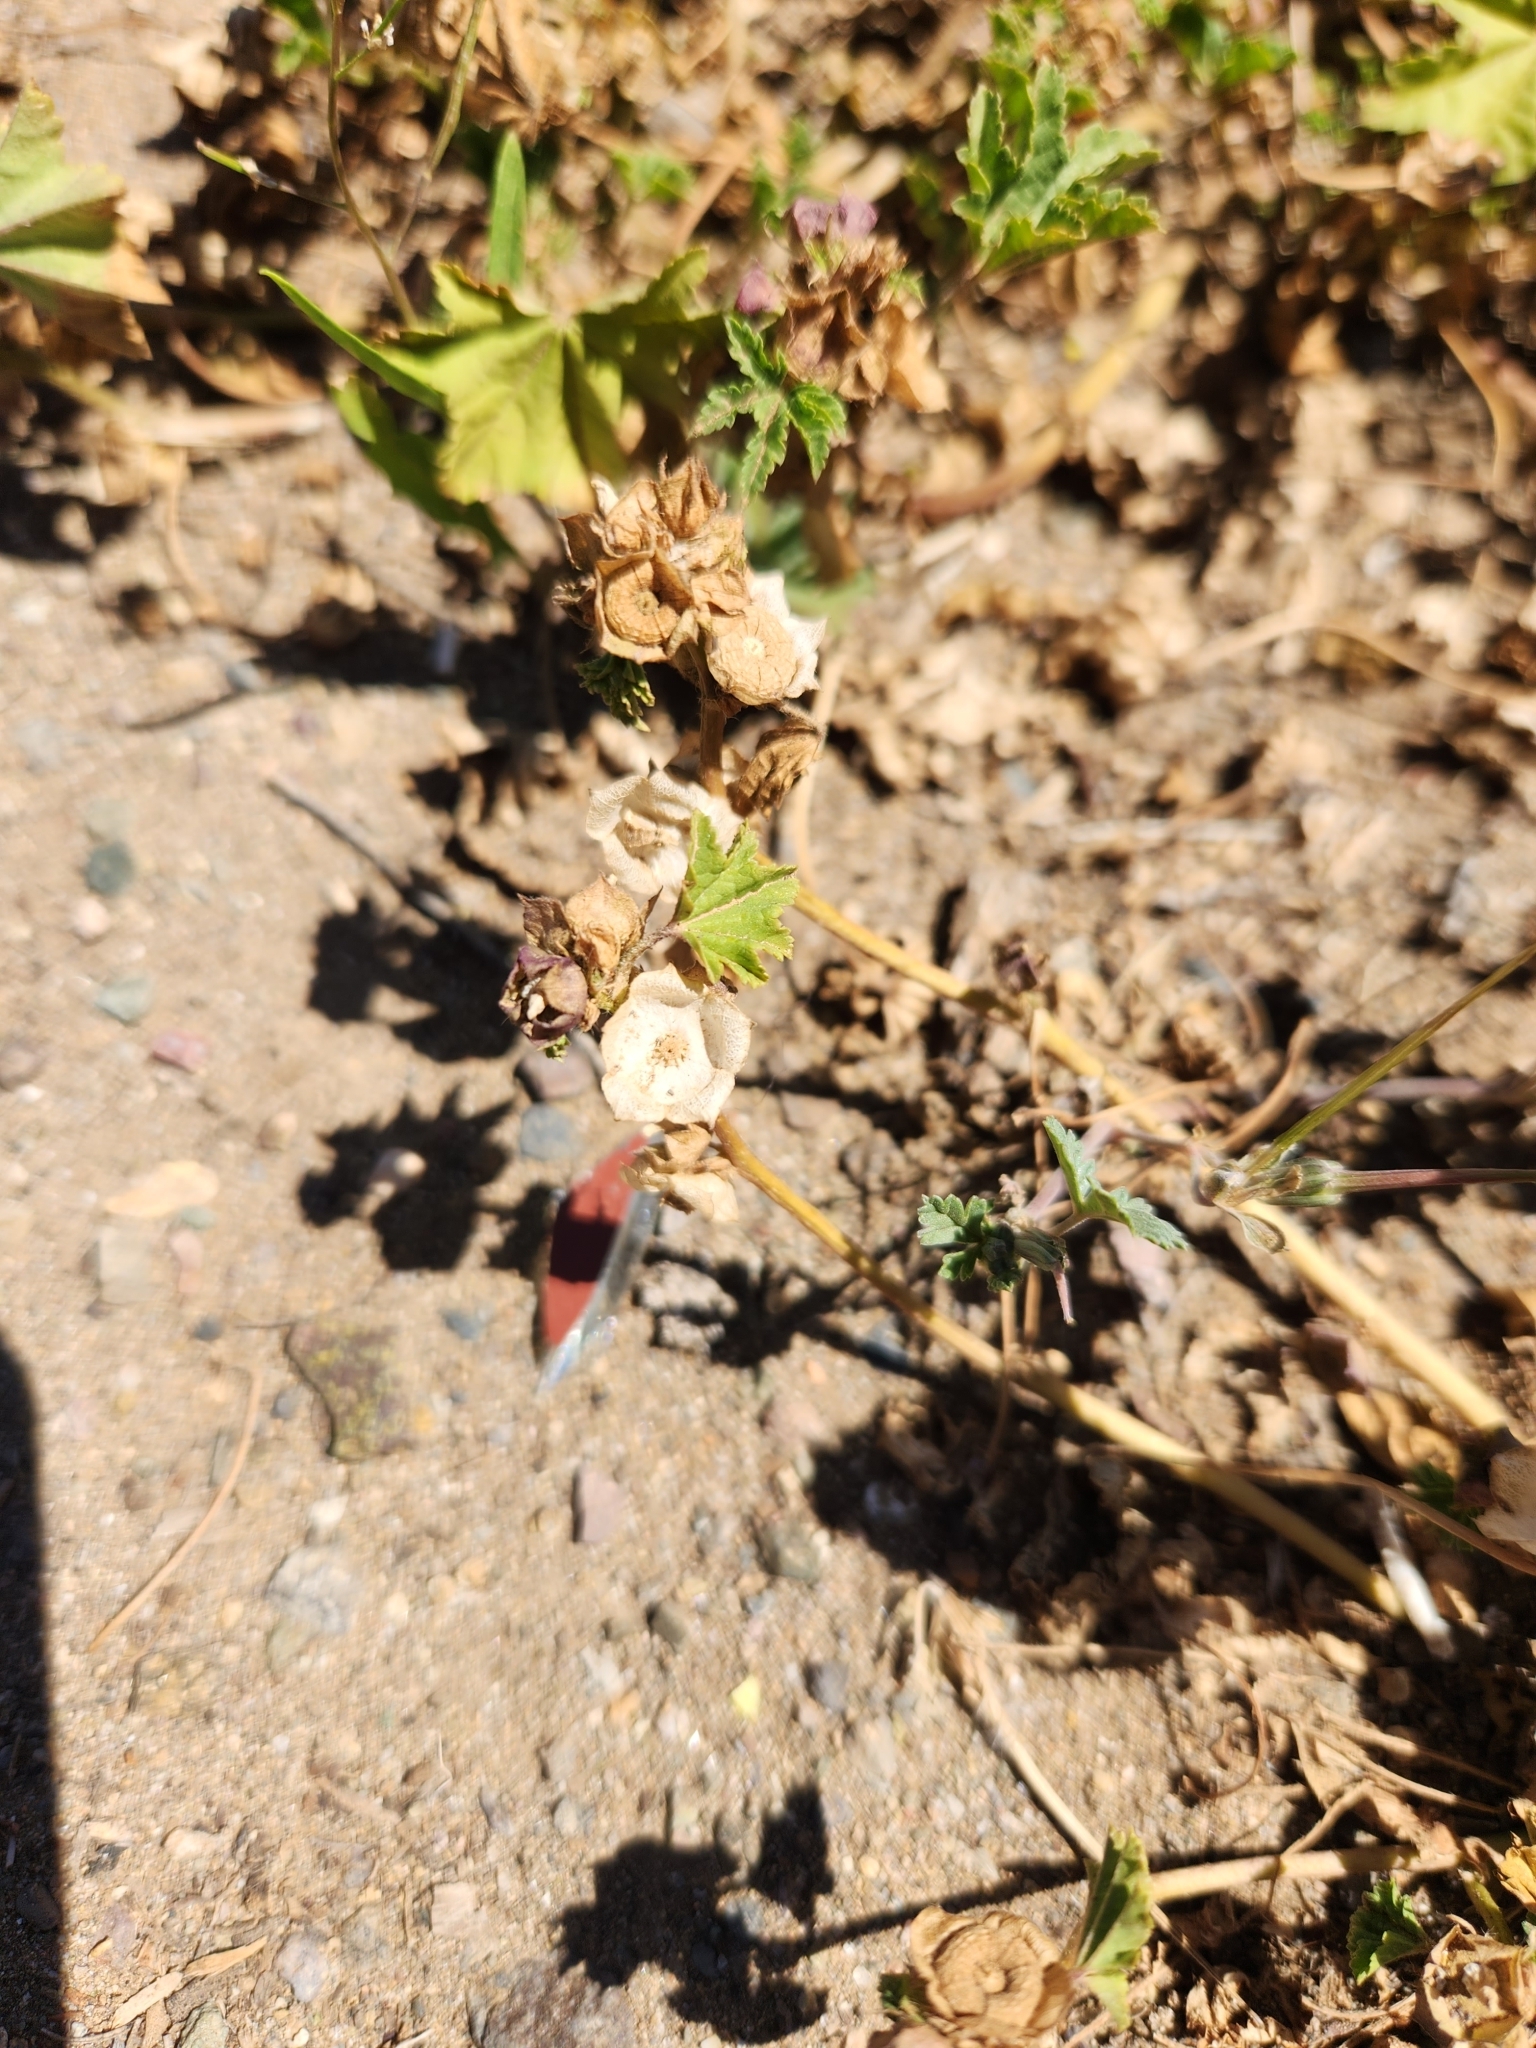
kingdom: Plantae
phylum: Tracheophyta
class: Magnoliopsida
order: Malvales
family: Malvaceae
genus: Malva
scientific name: Malva parviflora
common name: Least mallow
